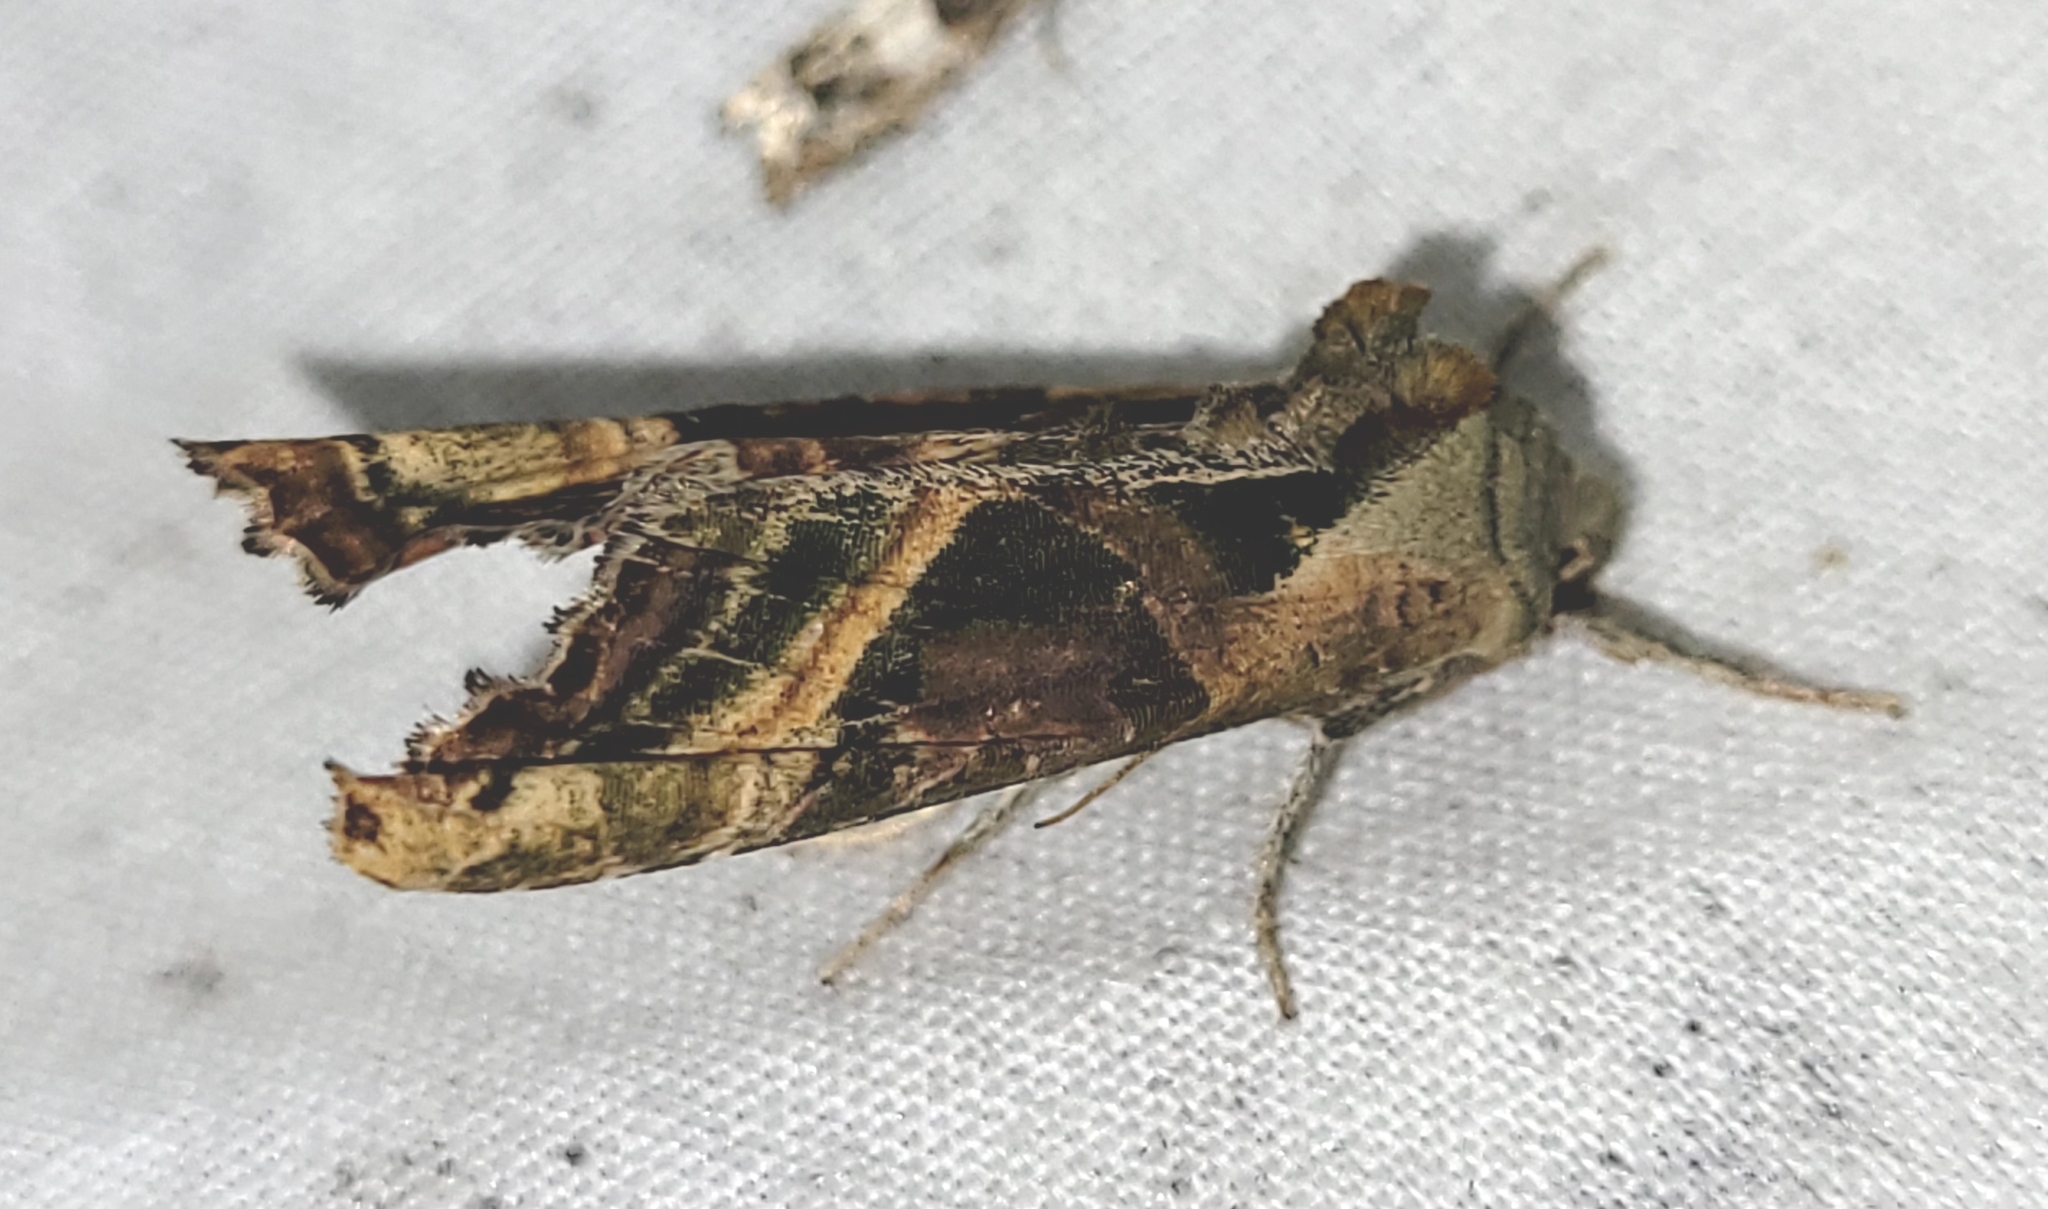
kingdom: Animalia
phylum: Arthropoda
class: Insecta
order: Lepidoptera
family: Noctuidae
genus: Phlogophora
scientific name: Phlogophora iris
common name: Olive angle shades
